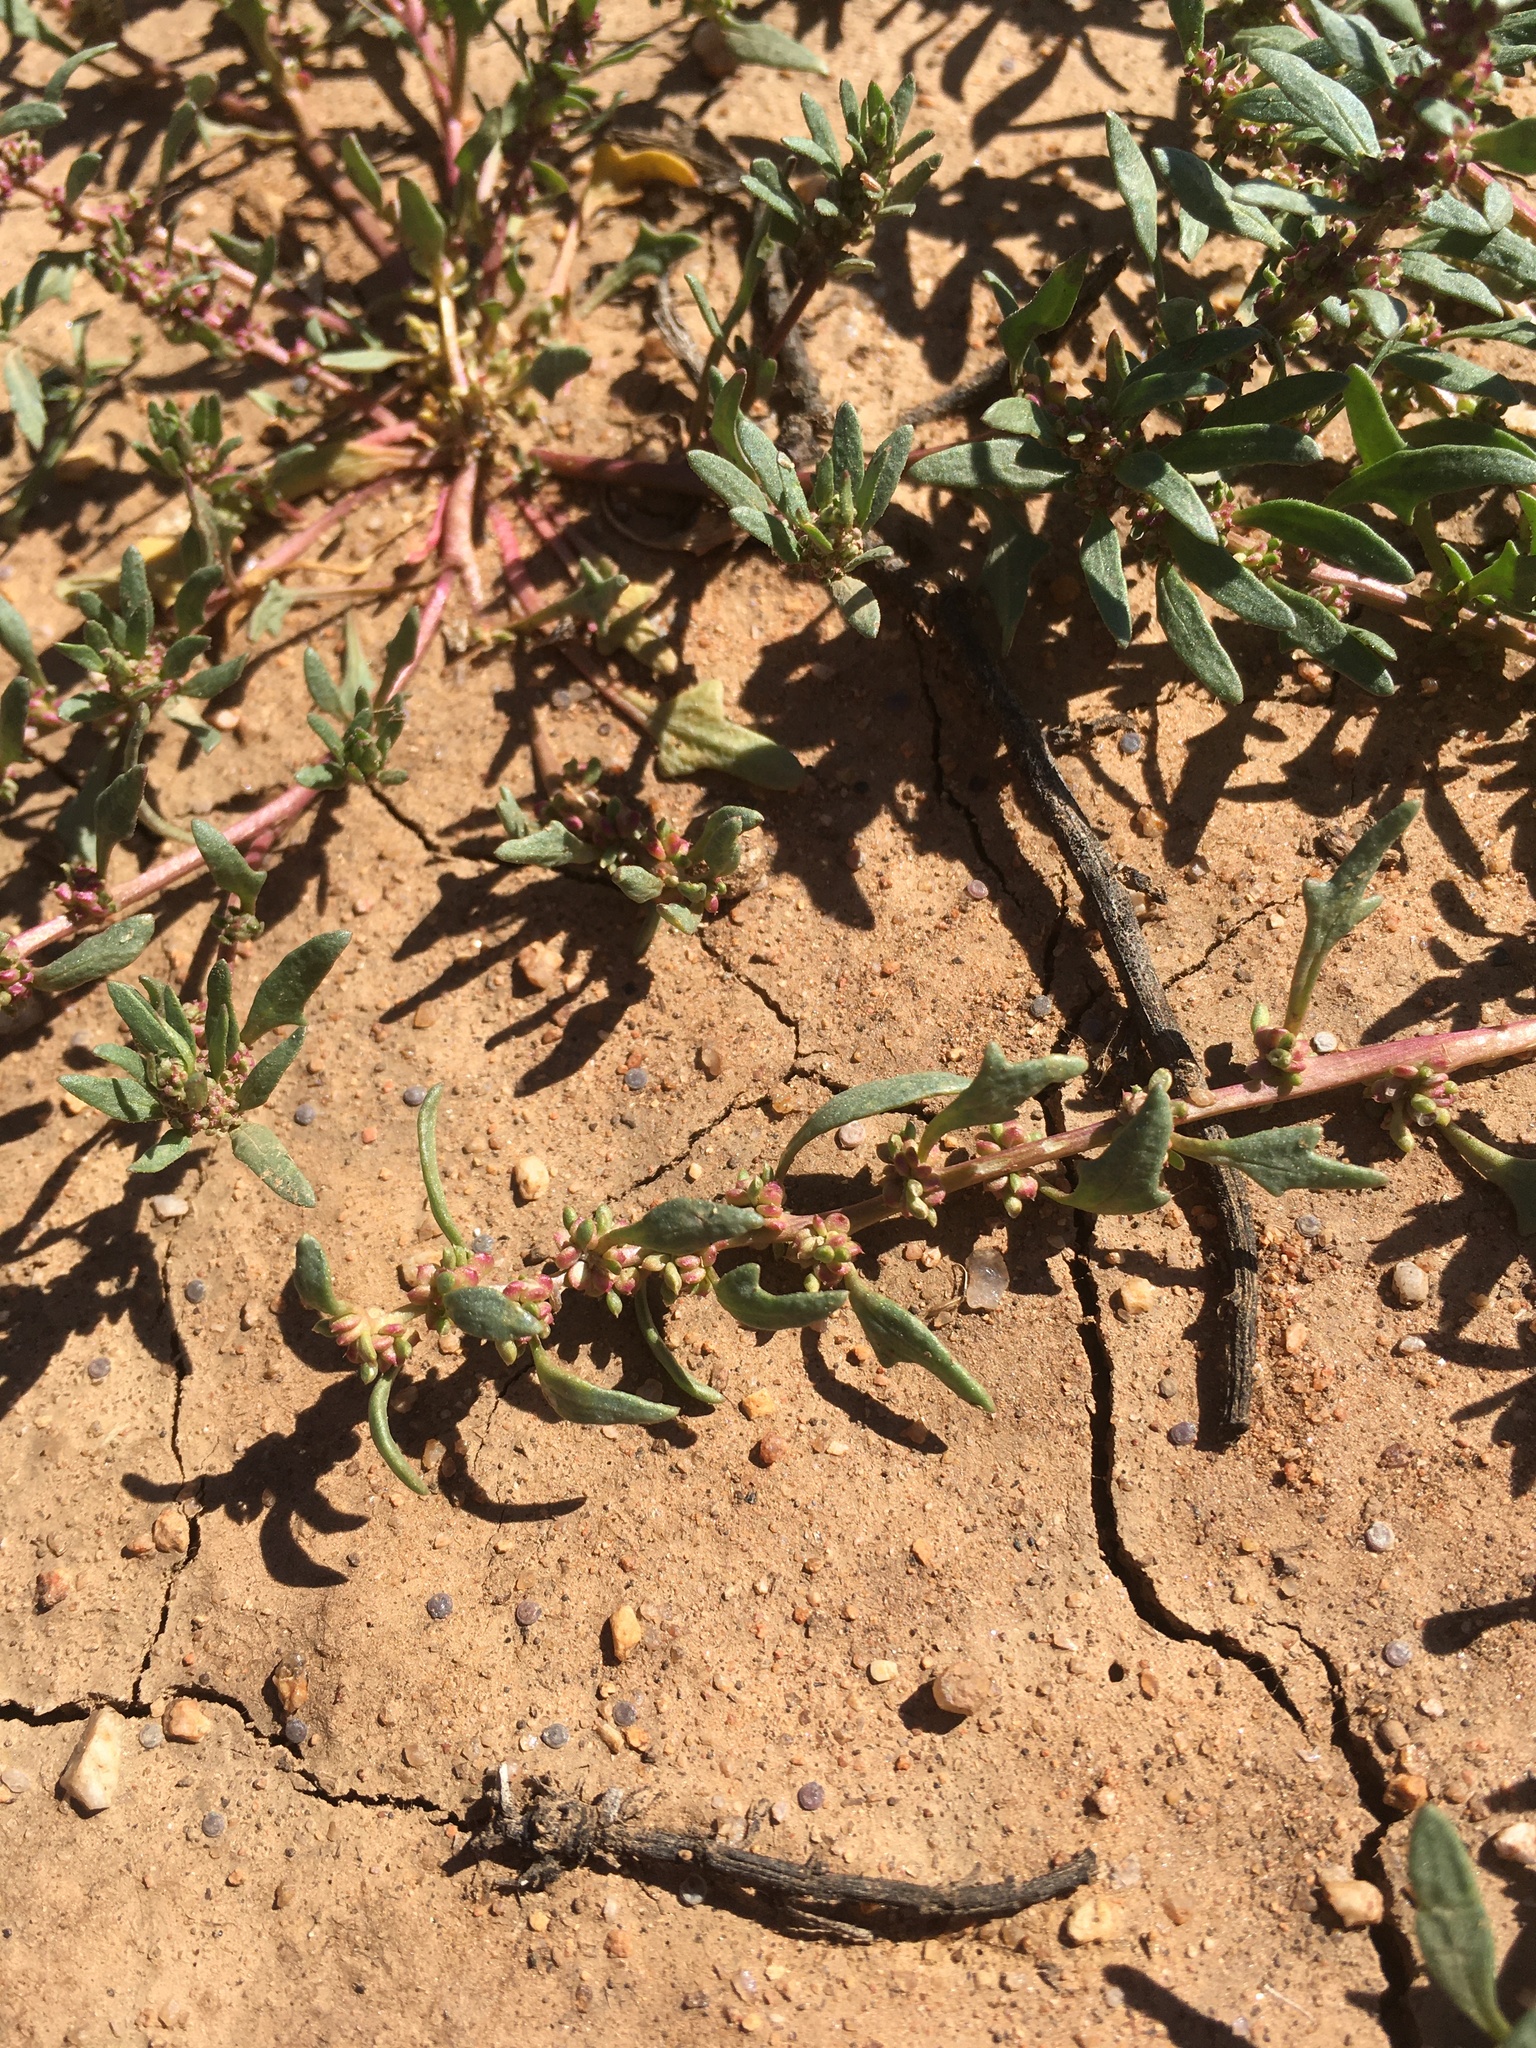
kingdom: Plantae
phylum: Tracheophyta
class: Magnoliopsida
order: Caryophyllales
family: Amaranthaceae
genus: Blitum
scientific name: Blitum nuttallianum
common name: Poverty-weed
